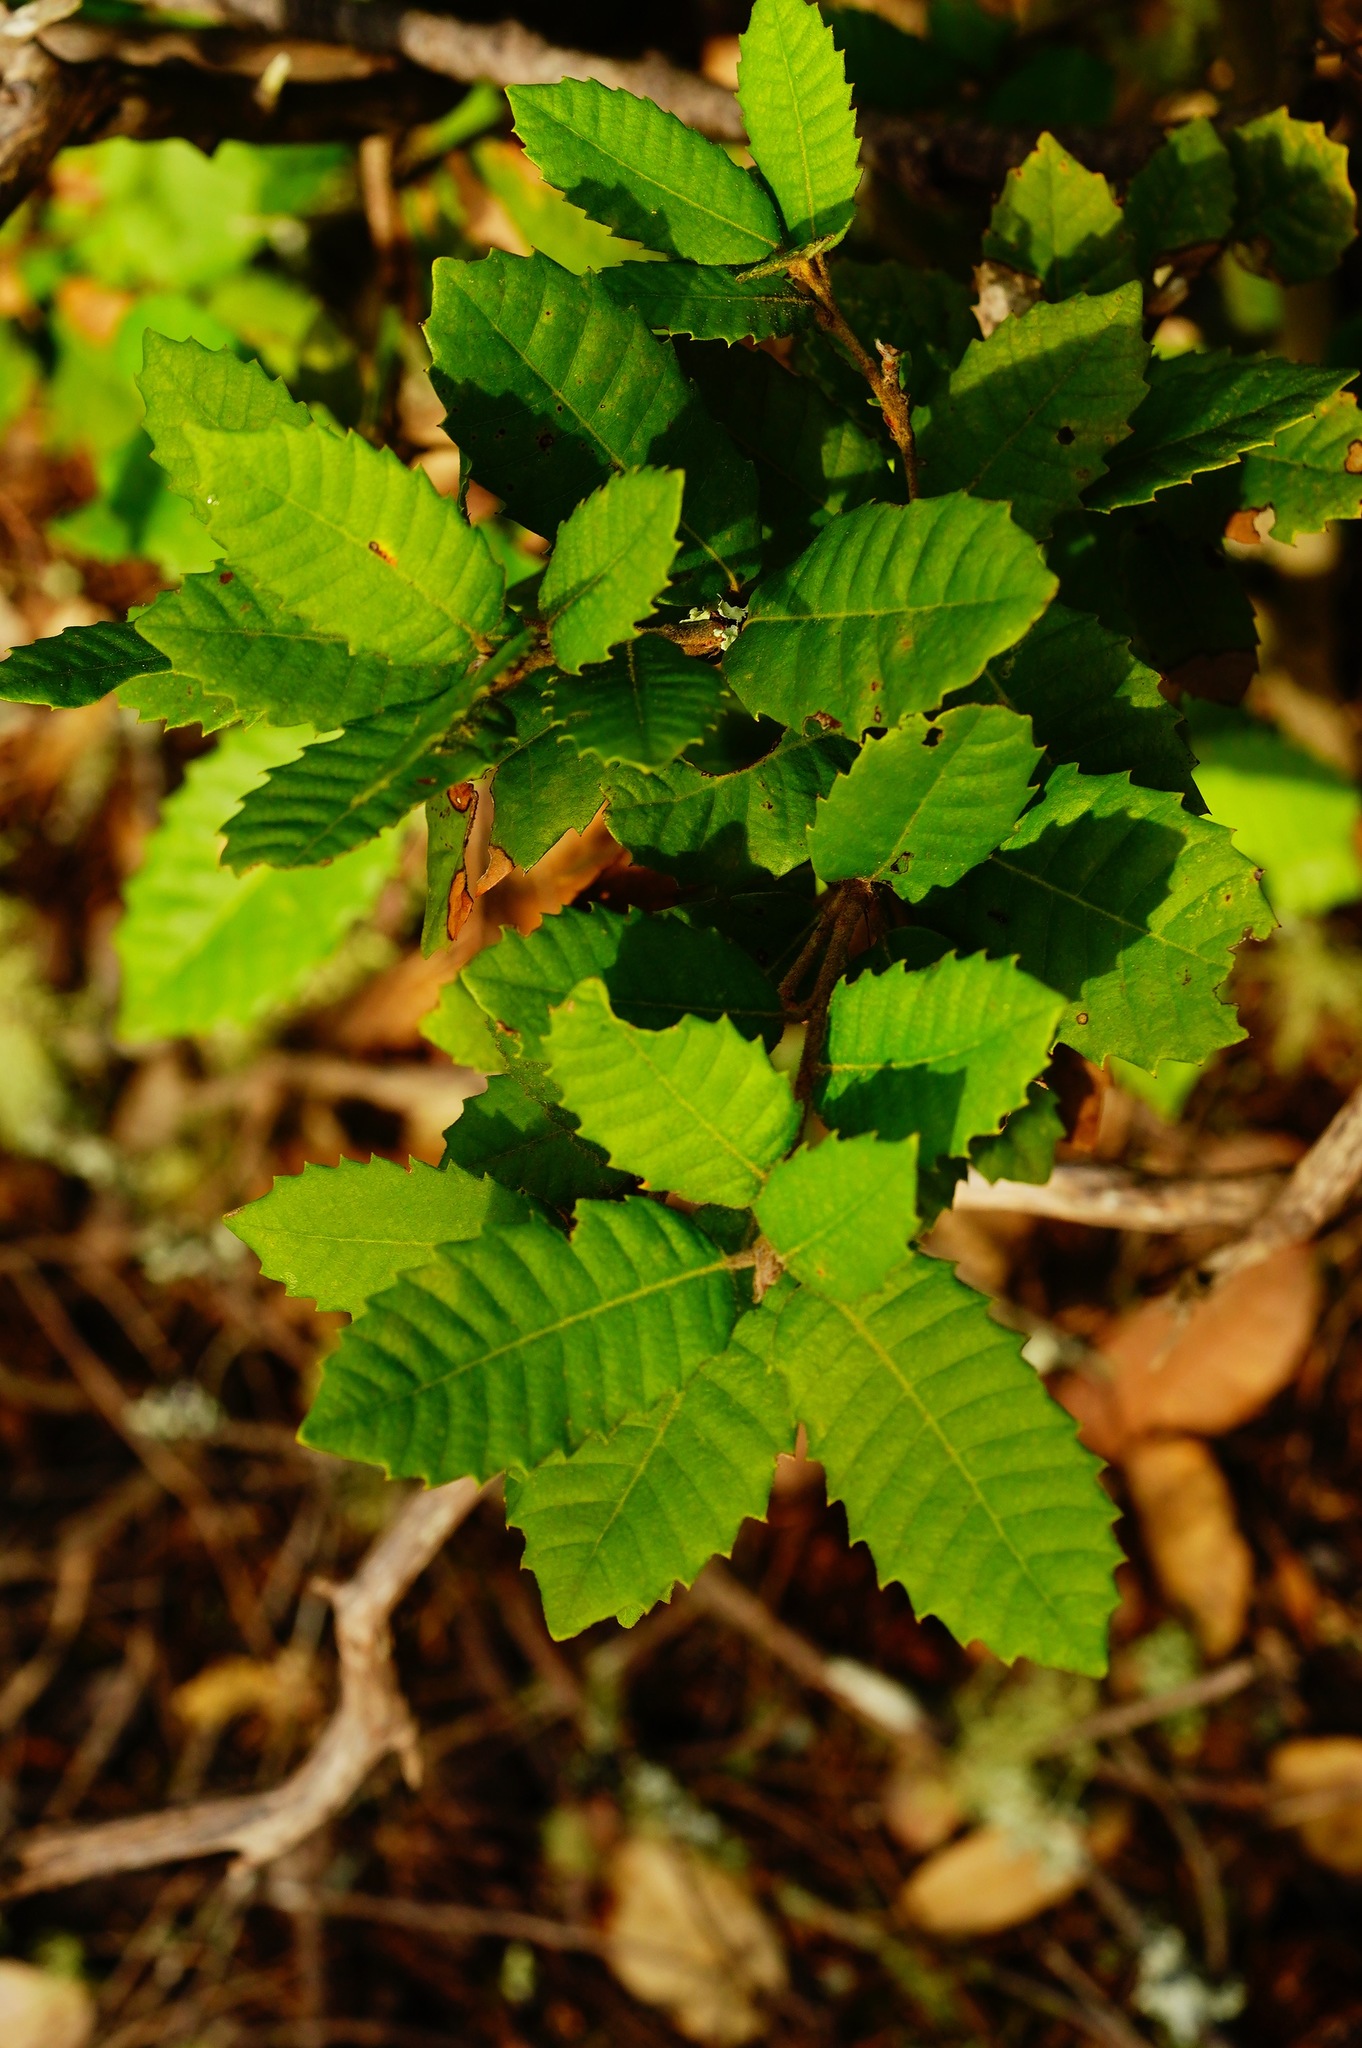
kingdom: Plantae
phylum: Tracheophyta
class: Magnoliopsida
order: Fagales
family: Fagaceae
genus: Notholithocarpus
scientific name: Notholithocarpus densiflorus
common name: Tan bark oak
